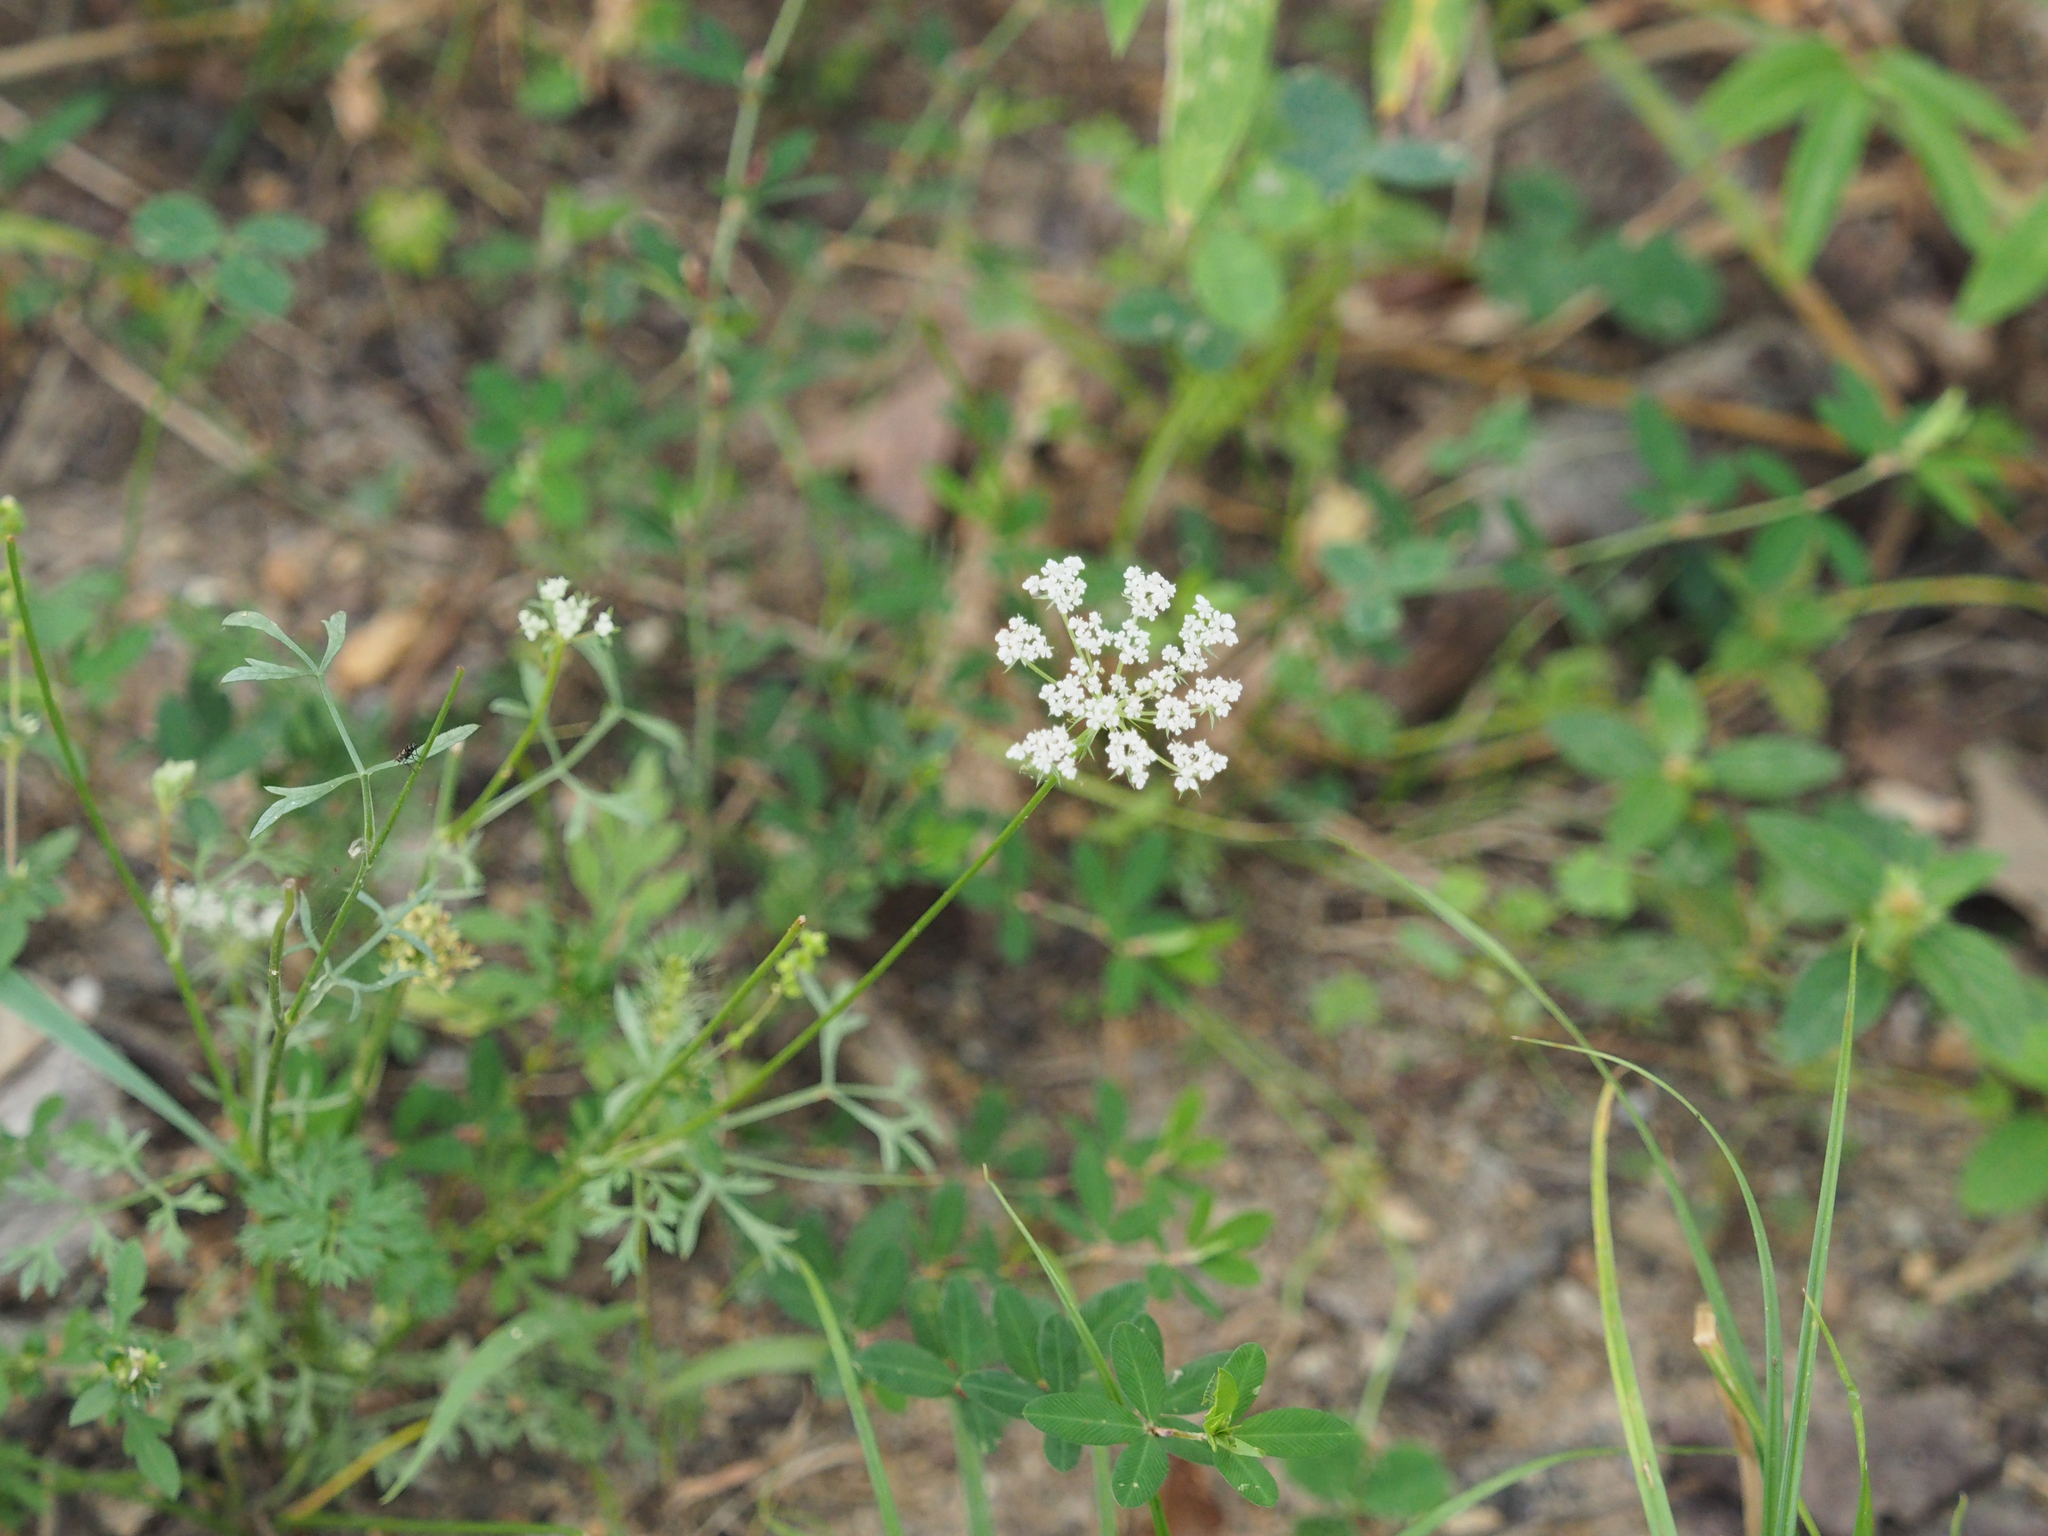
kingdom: Plantae
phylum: Tracheophyta
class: Magnoliopsida
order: Apiales
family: Apiaceae
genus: Daucus
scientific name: Daucus carota
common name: Wild carrot
